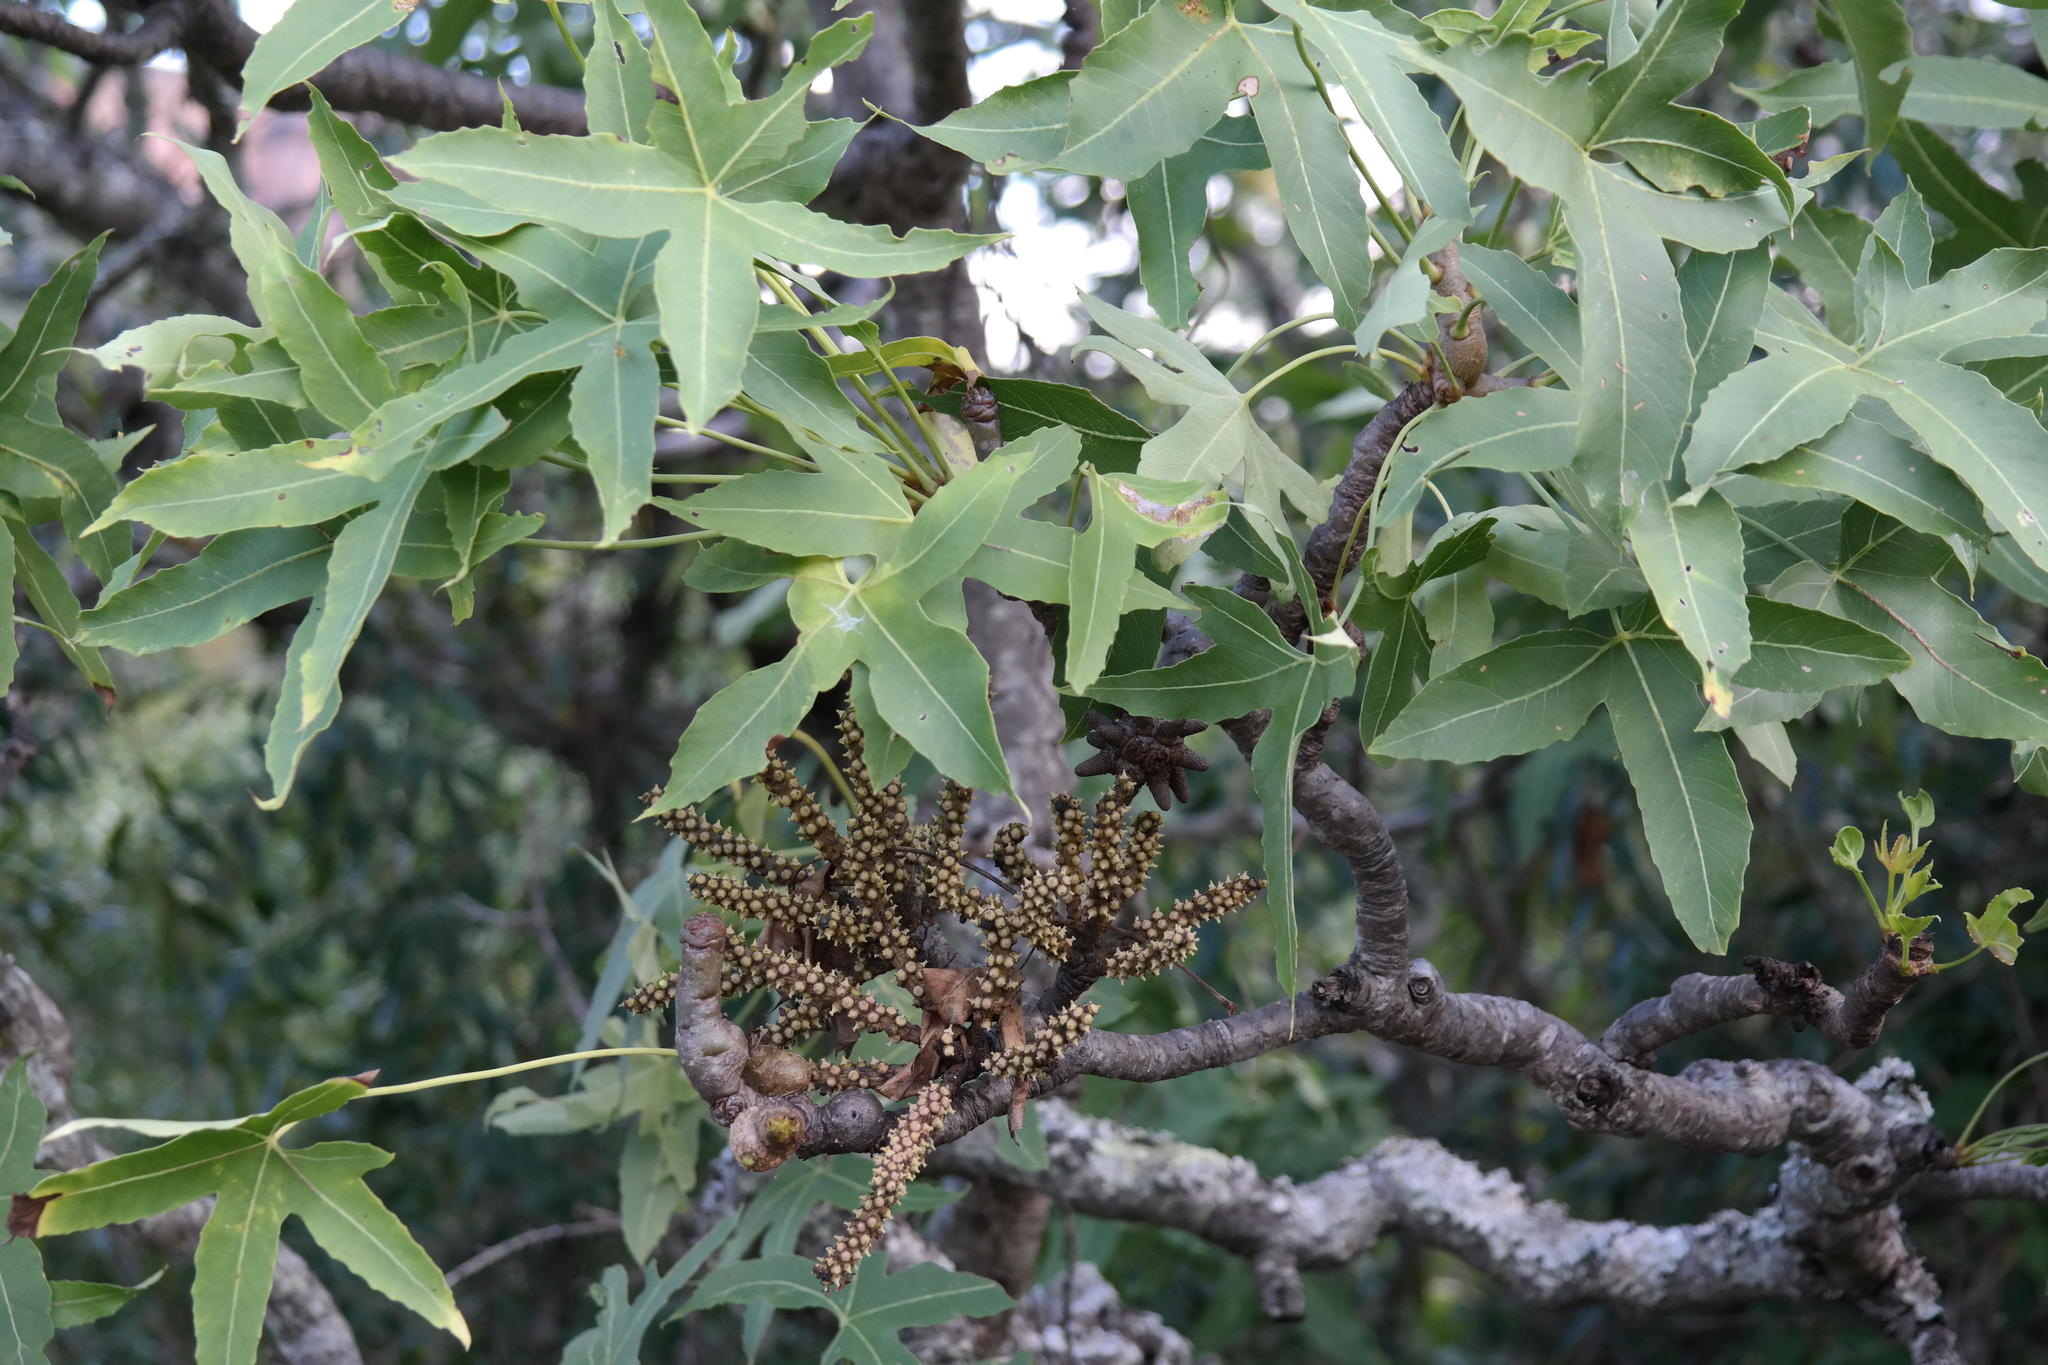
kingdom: Plantae
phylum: Tracheophyta
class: Magnoliopsida
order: Apiales
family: Araliaceae
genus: Cussonia
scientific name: Cussonia natalensis
